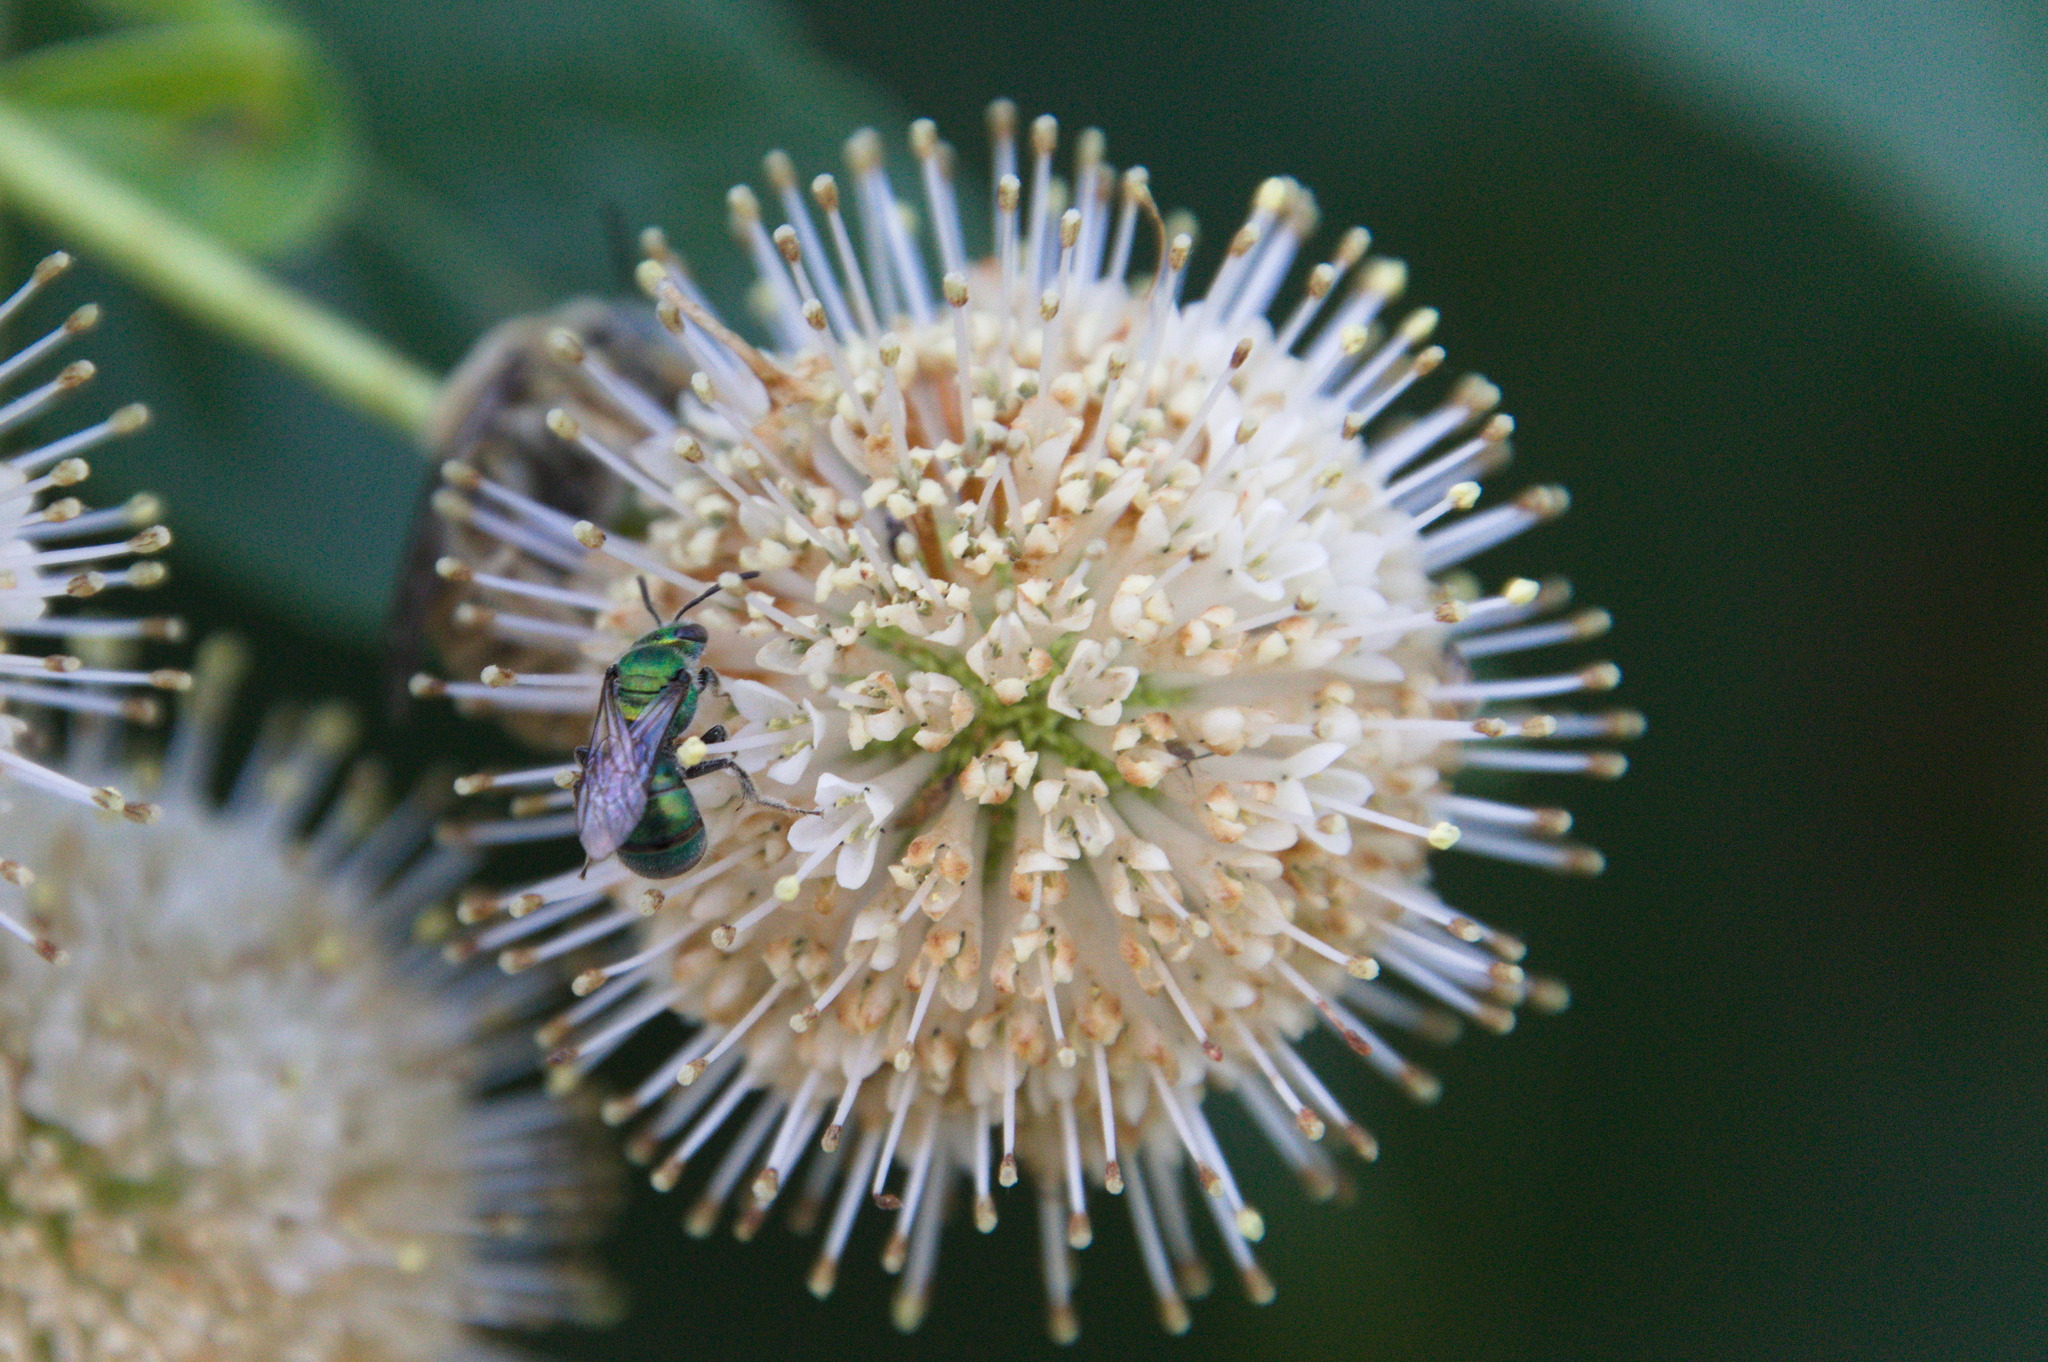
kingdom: Plantae
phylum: Tracheophyta
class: Magnoliopsida
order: Gentianales
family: Rubiaceae
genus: Cephalanthus
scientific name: Cephalanthus occidentalis
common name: Button-willow
